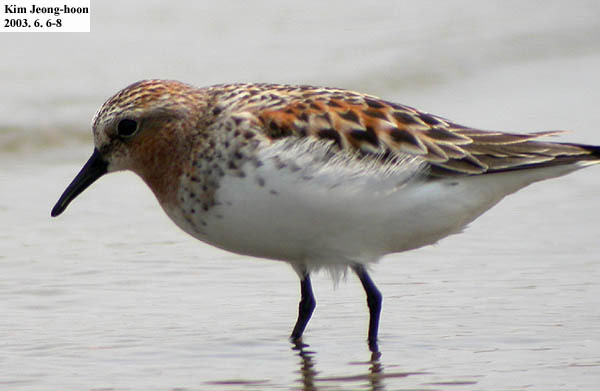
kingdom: Animalia
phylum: Chordata
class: Aves
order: Charadriiformes
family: Scolopacidae
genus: Calidris
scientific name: Calidris ruficollis
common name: Red-necked stint
